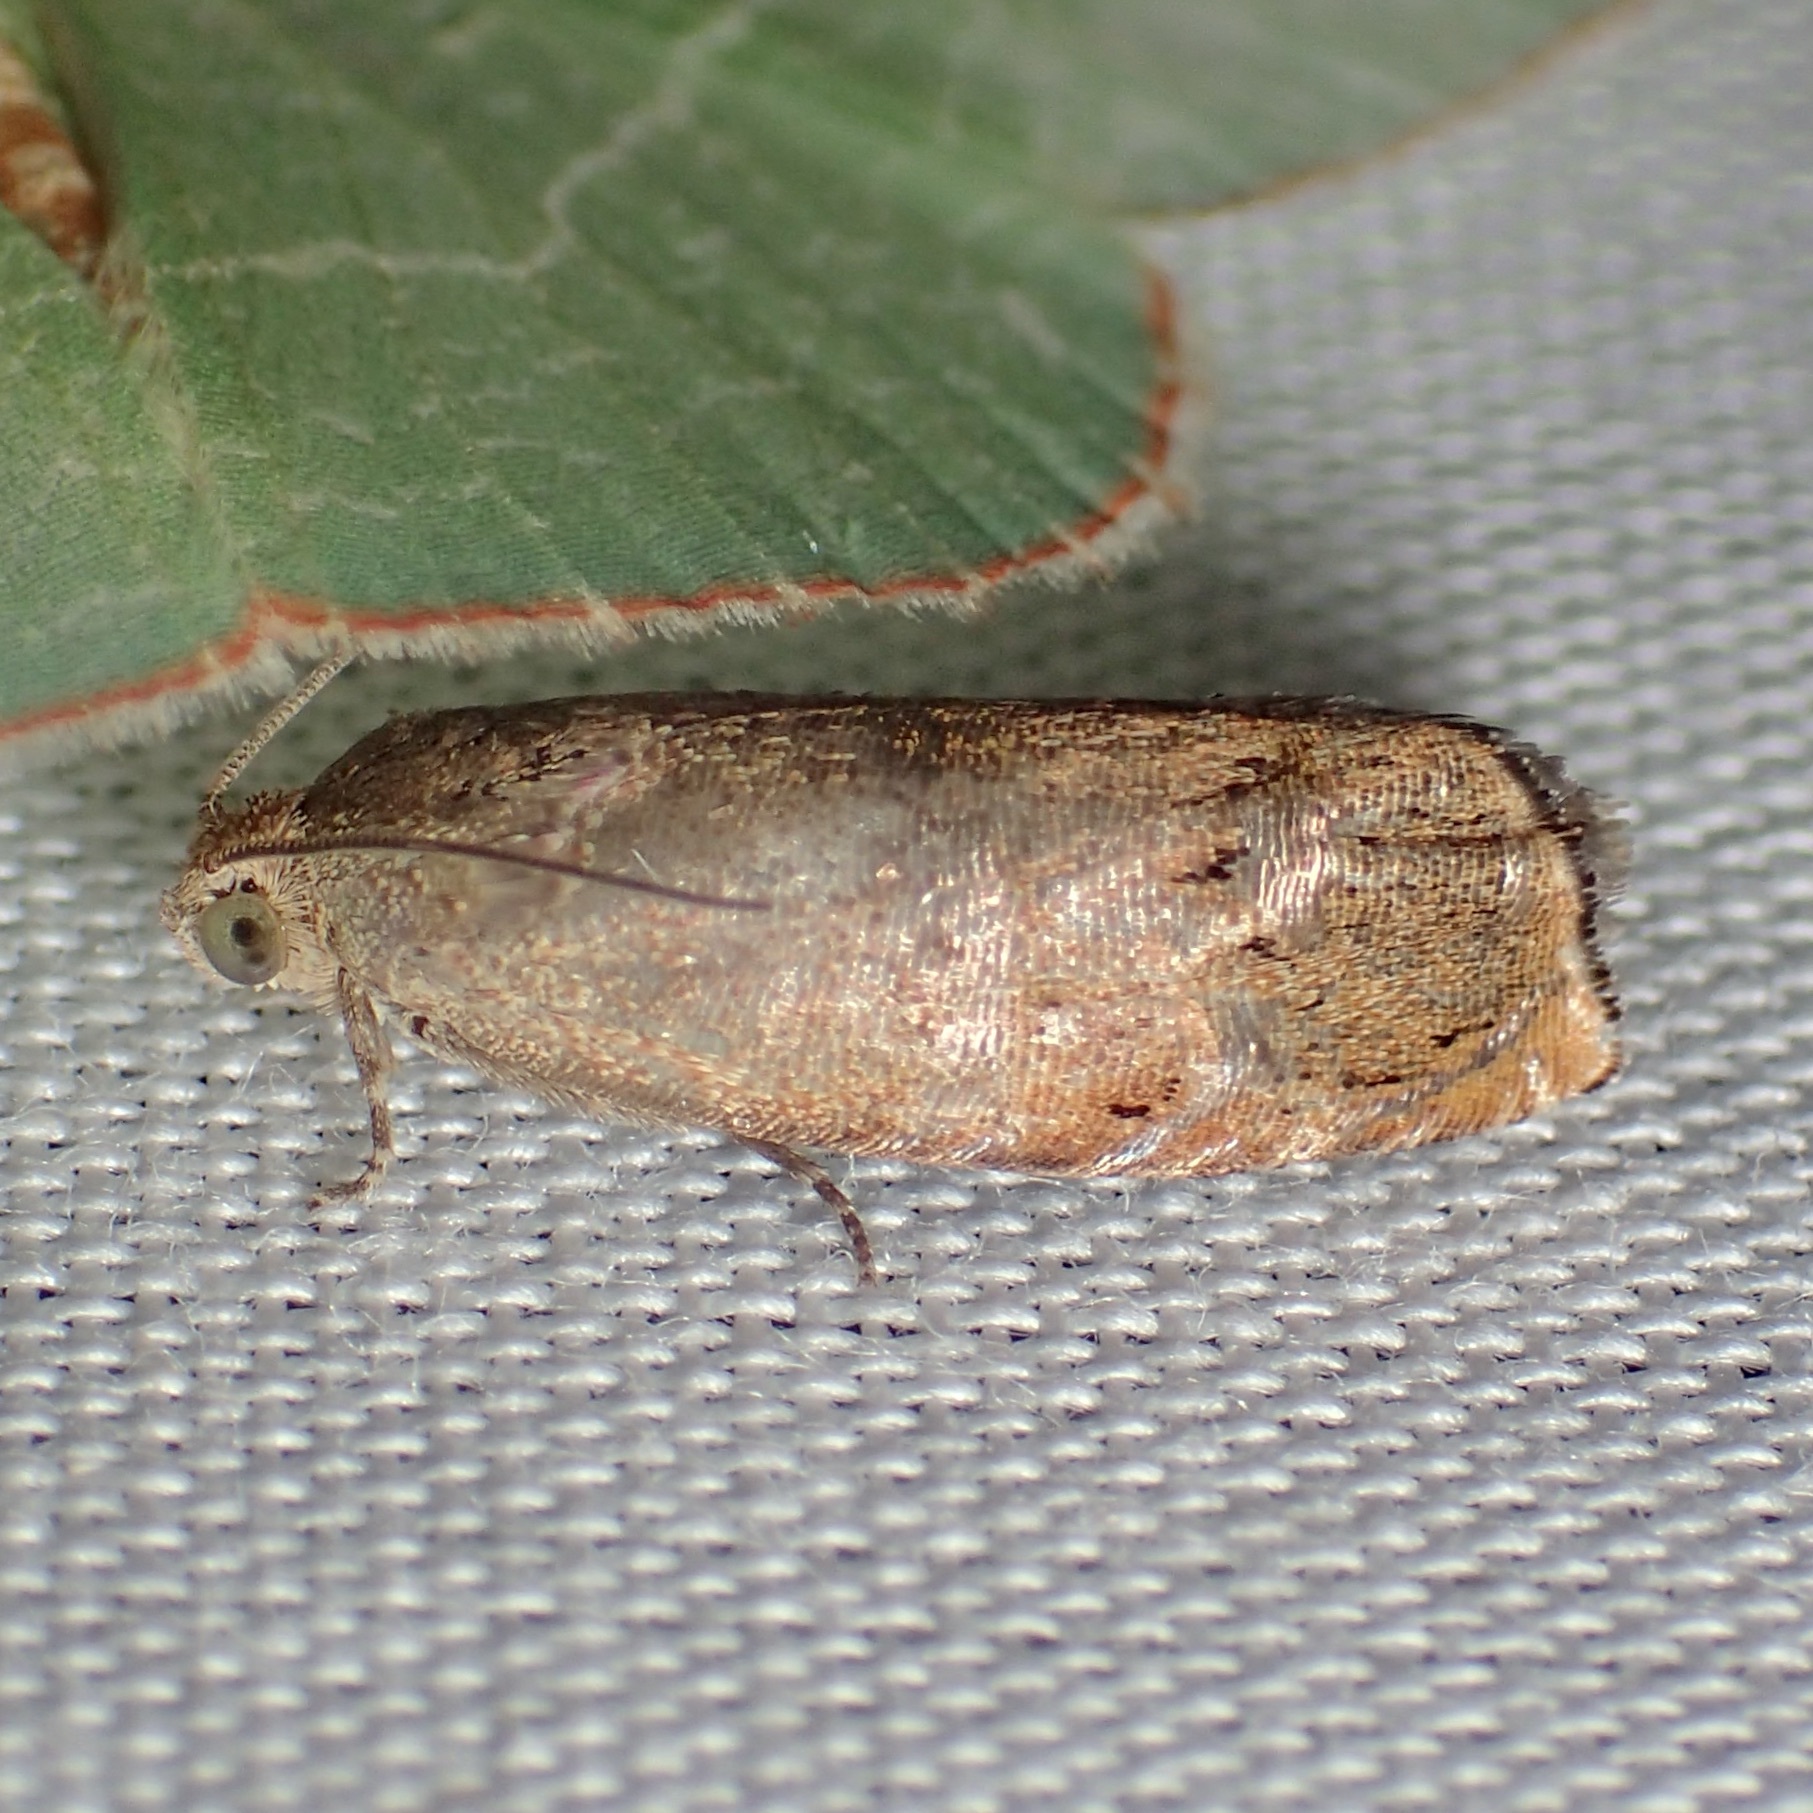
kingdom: Animalia
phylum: Arthropoda
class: Insecta
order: Lepidoptera
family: Tortricidae
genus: Cydia
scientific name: Cydia latiferreana
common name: Filbertworm moth
